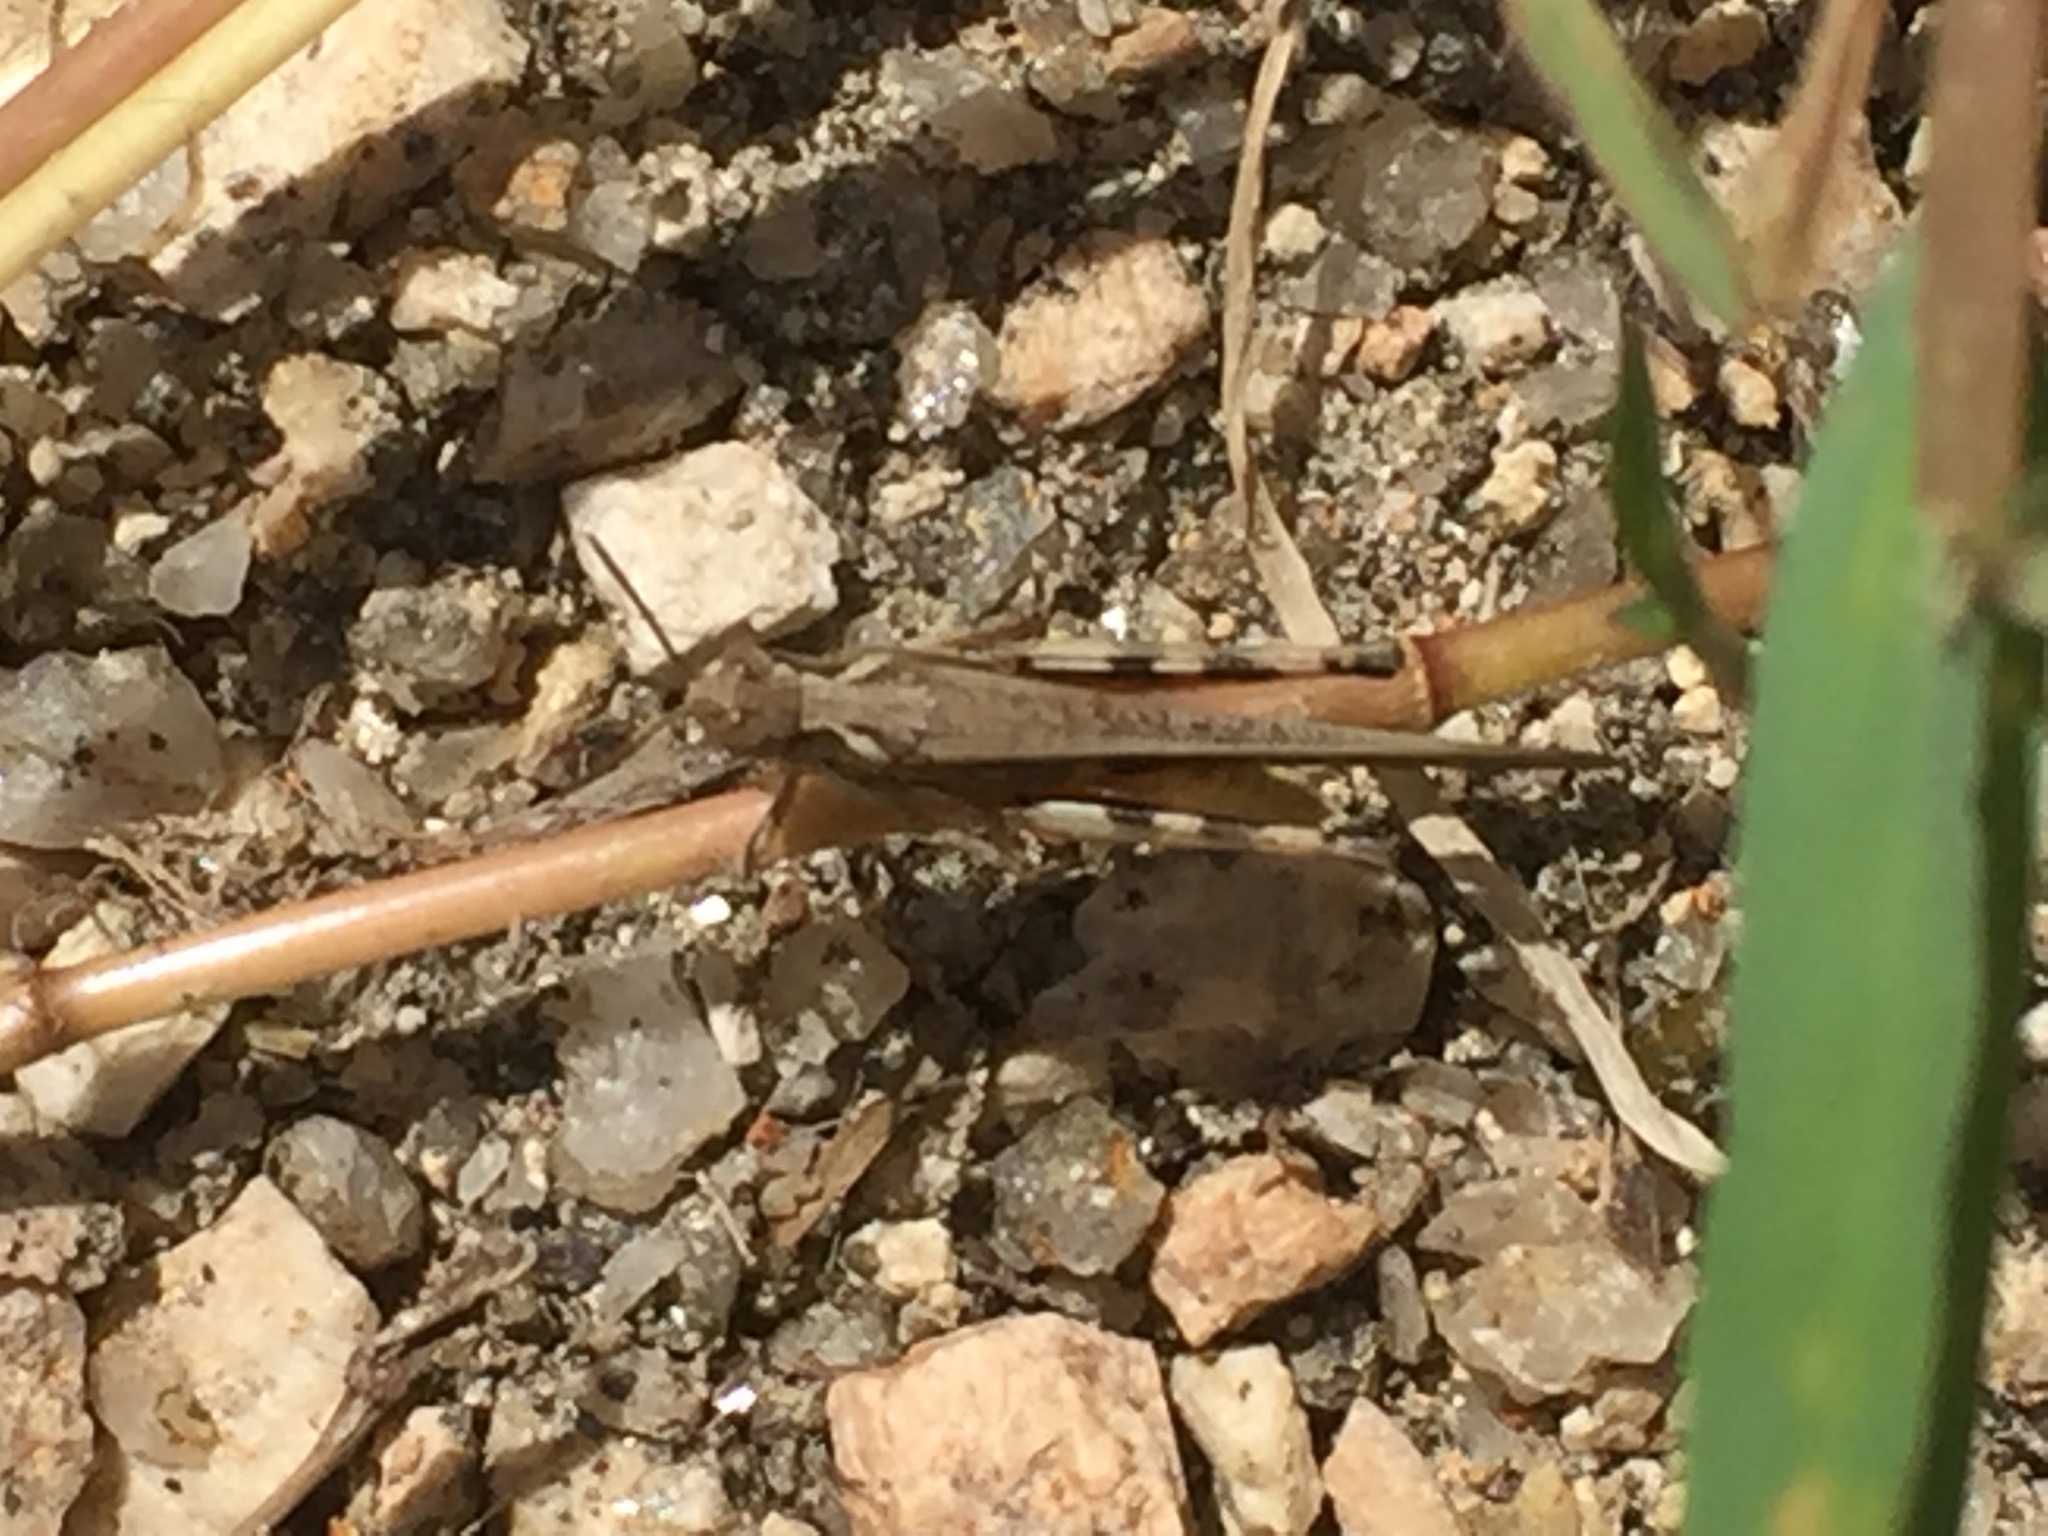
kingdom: Animalia
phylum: Arthropoda
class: Insecta
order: Orthoptera
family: Acrididae
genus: Aiolopus
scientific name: Aiolopus puissanti
